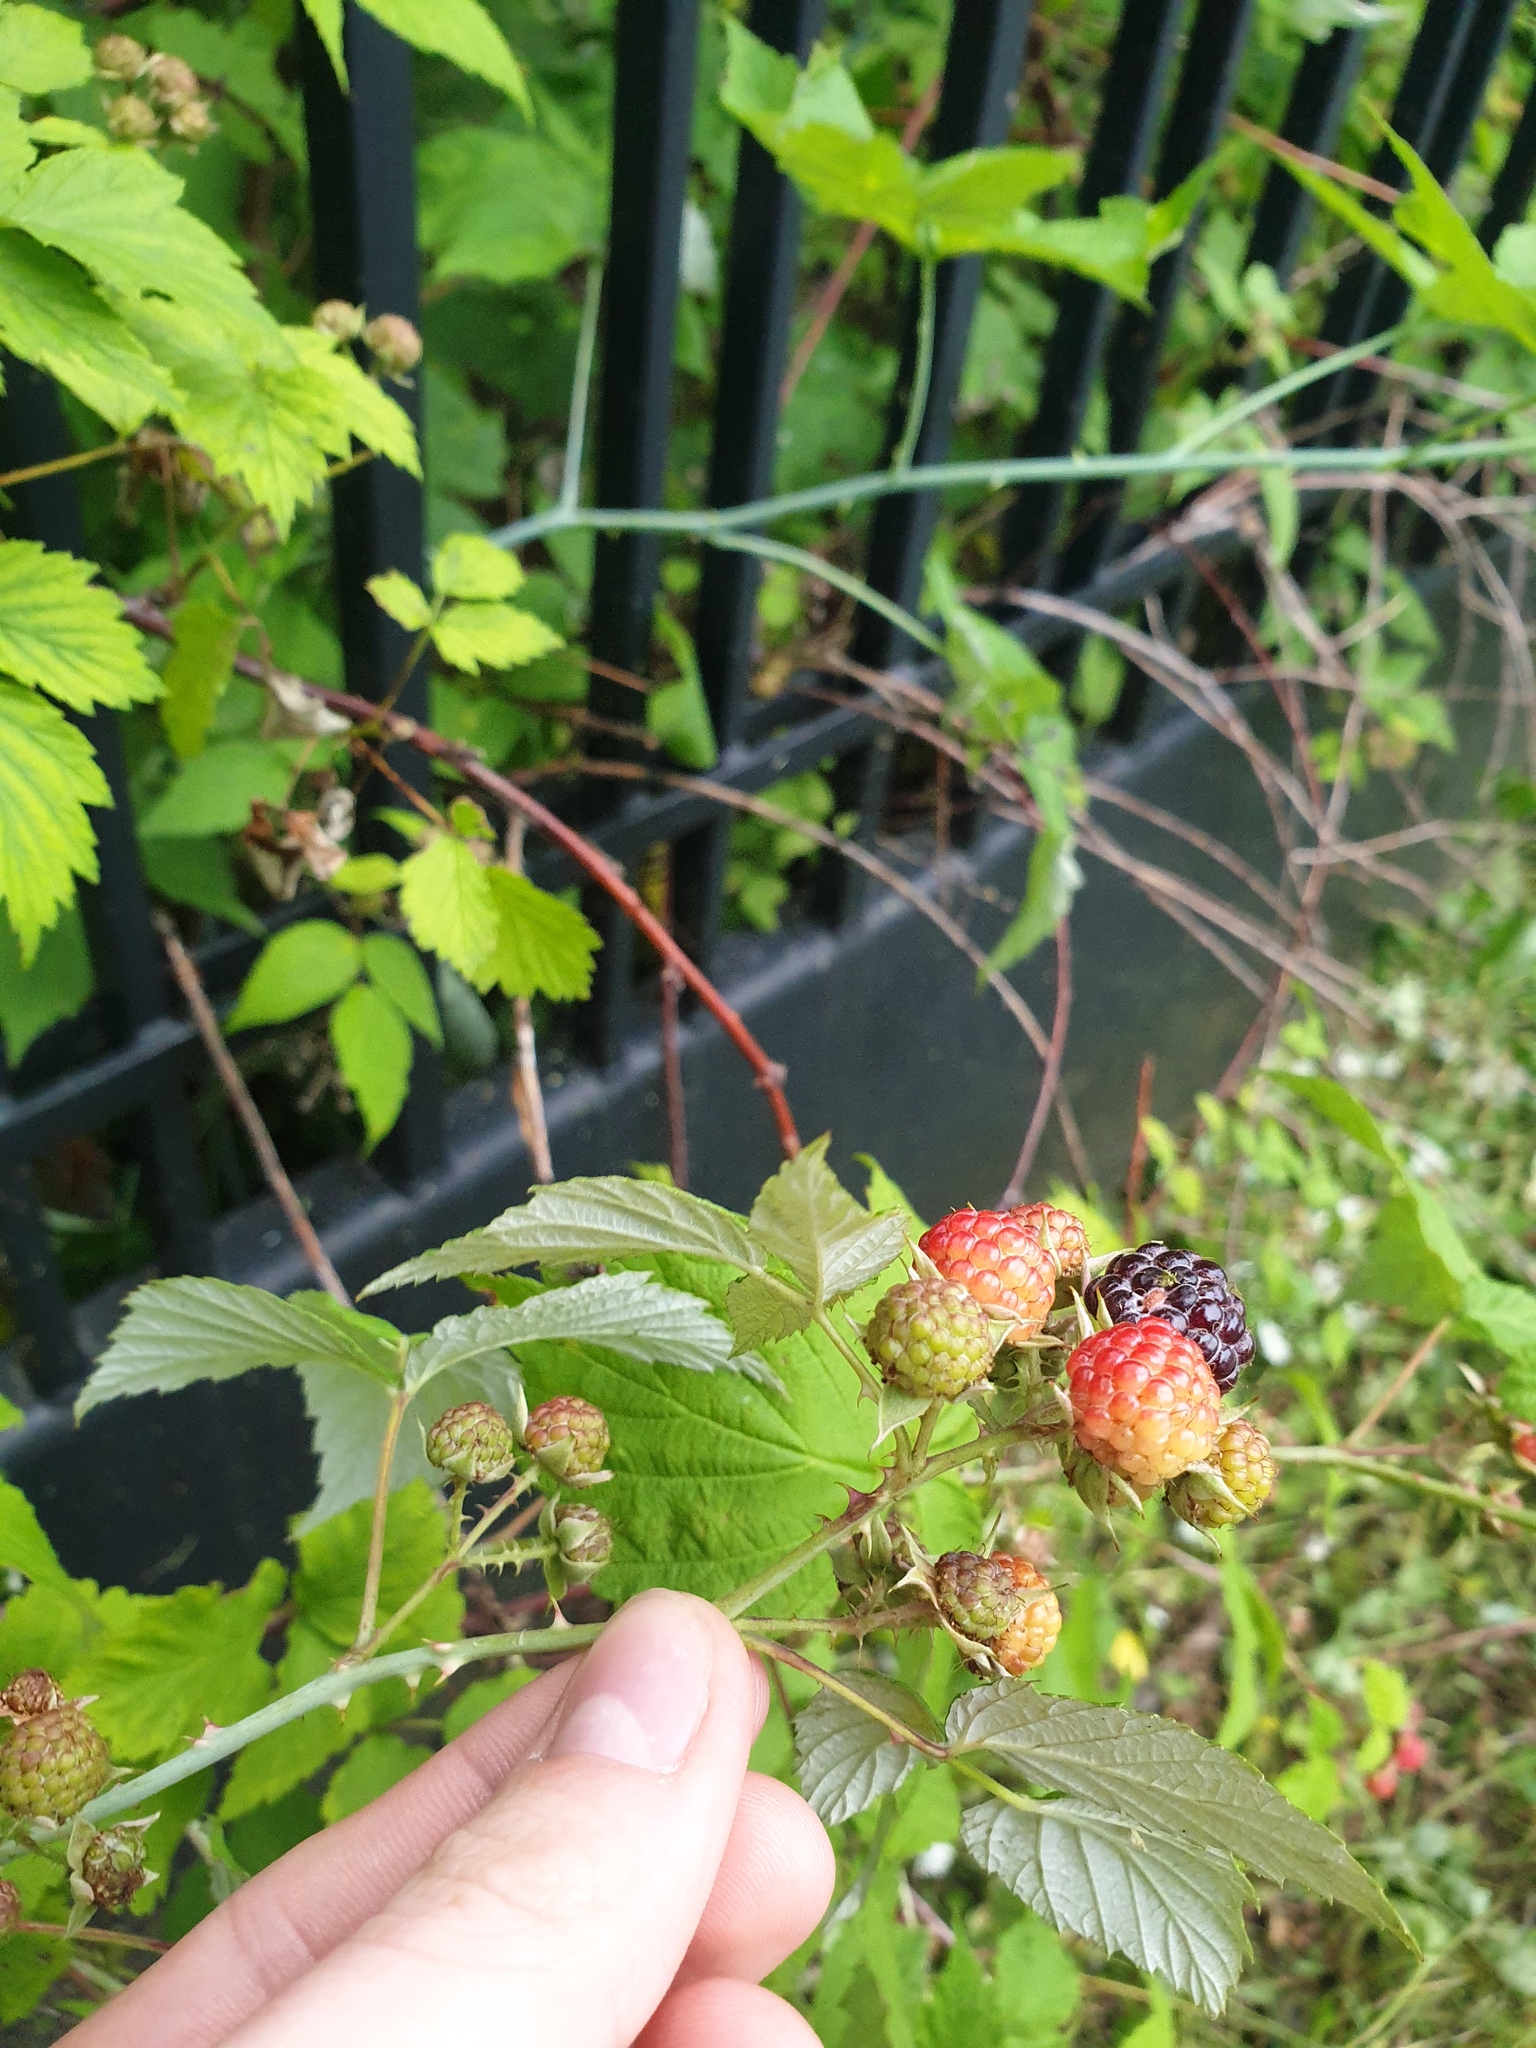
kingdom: Plantae
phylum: Tracheophyta
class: Magnoliopsida
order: Rosales
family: Rosaceae
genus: Rubus
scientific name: Rubus occidentalis
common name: Black raspberry
